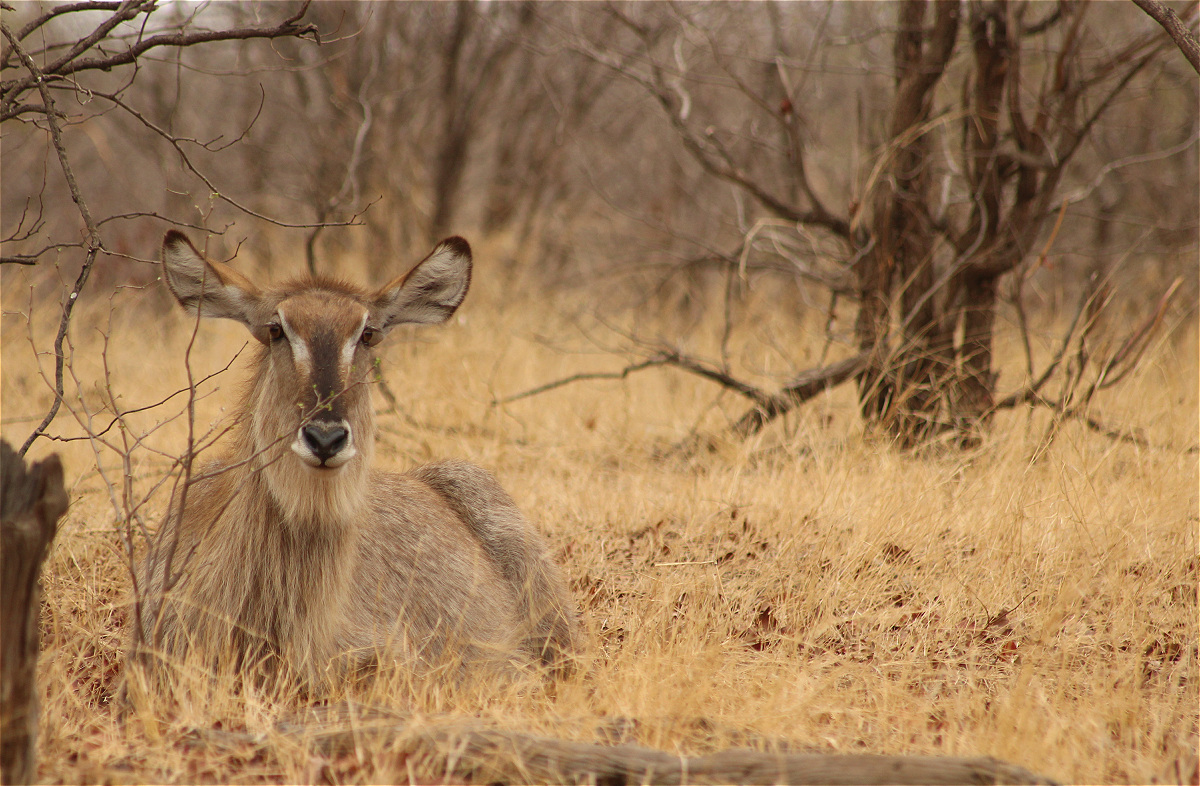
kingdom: Animalia
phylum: Chordata
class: Mammalia
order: Artiodactyla
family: Bovidae
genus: Kobus
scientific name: Kobus ellipsiprymnus
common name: Waterbuck
